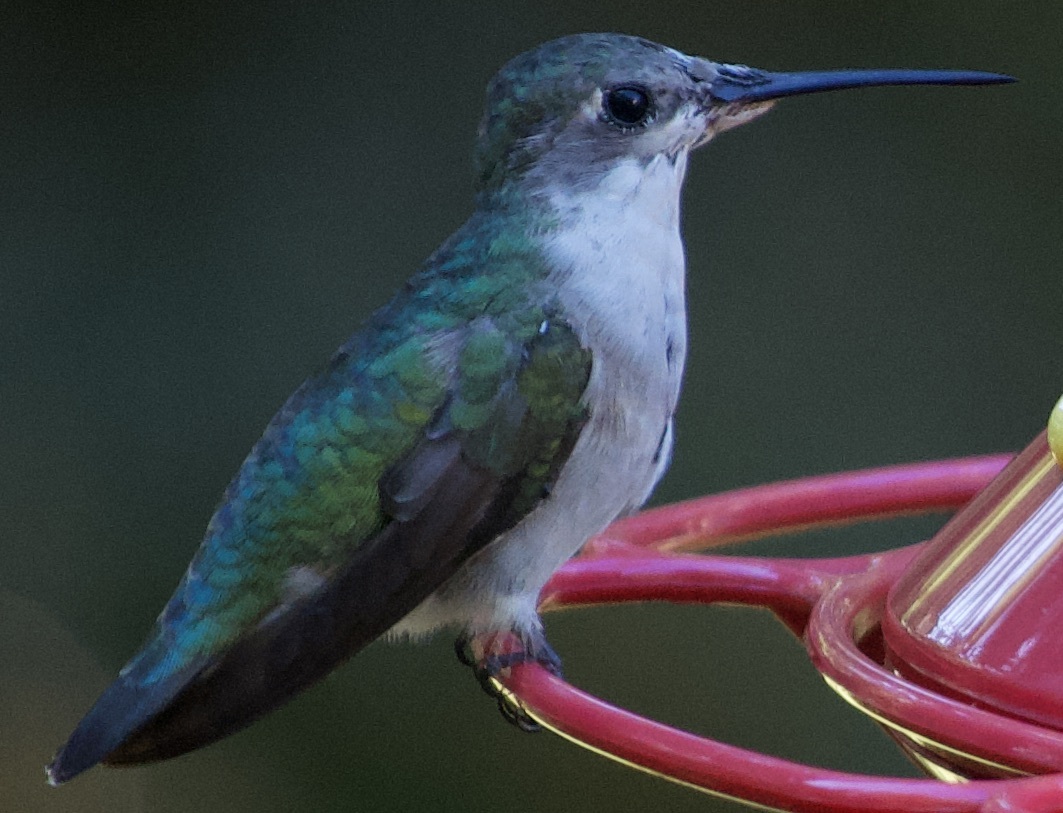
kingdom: Animalia
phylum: Chordata
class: Aves
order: Apodiformes
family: Trochilidae
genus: Archilochus
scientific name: Archilochus colubris
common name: Ruby-throated hummingbird
